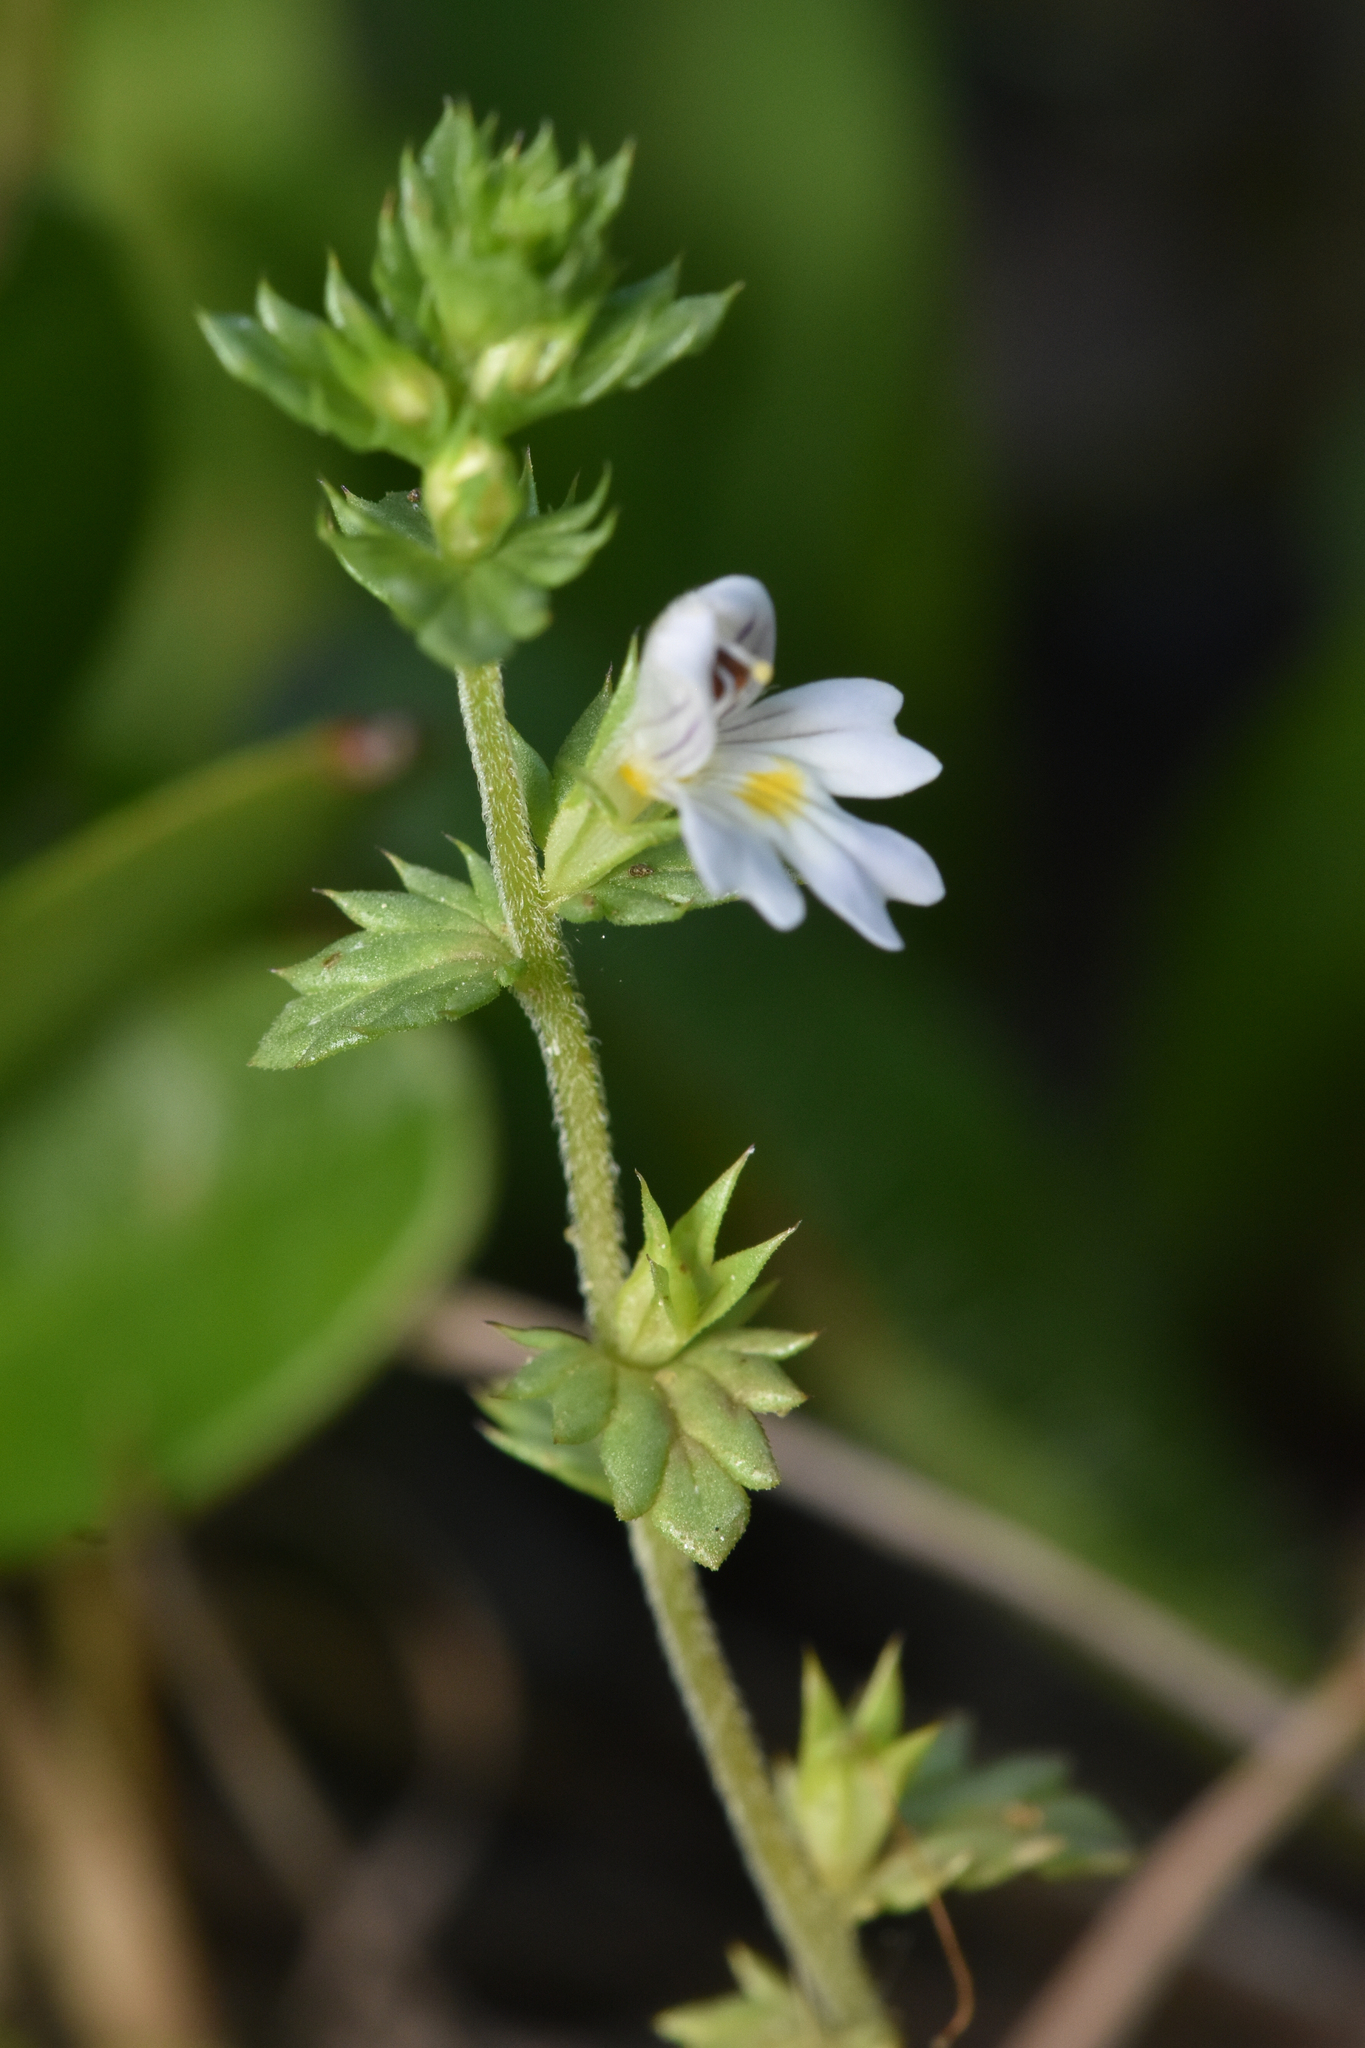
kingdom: Plantae
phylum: Tracheophyta
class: Magnoliopsida
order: Lamiales
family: Orobanchaceae
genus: Euphrasia
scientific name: Euphrasia nemorosa
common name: Common eyebright
